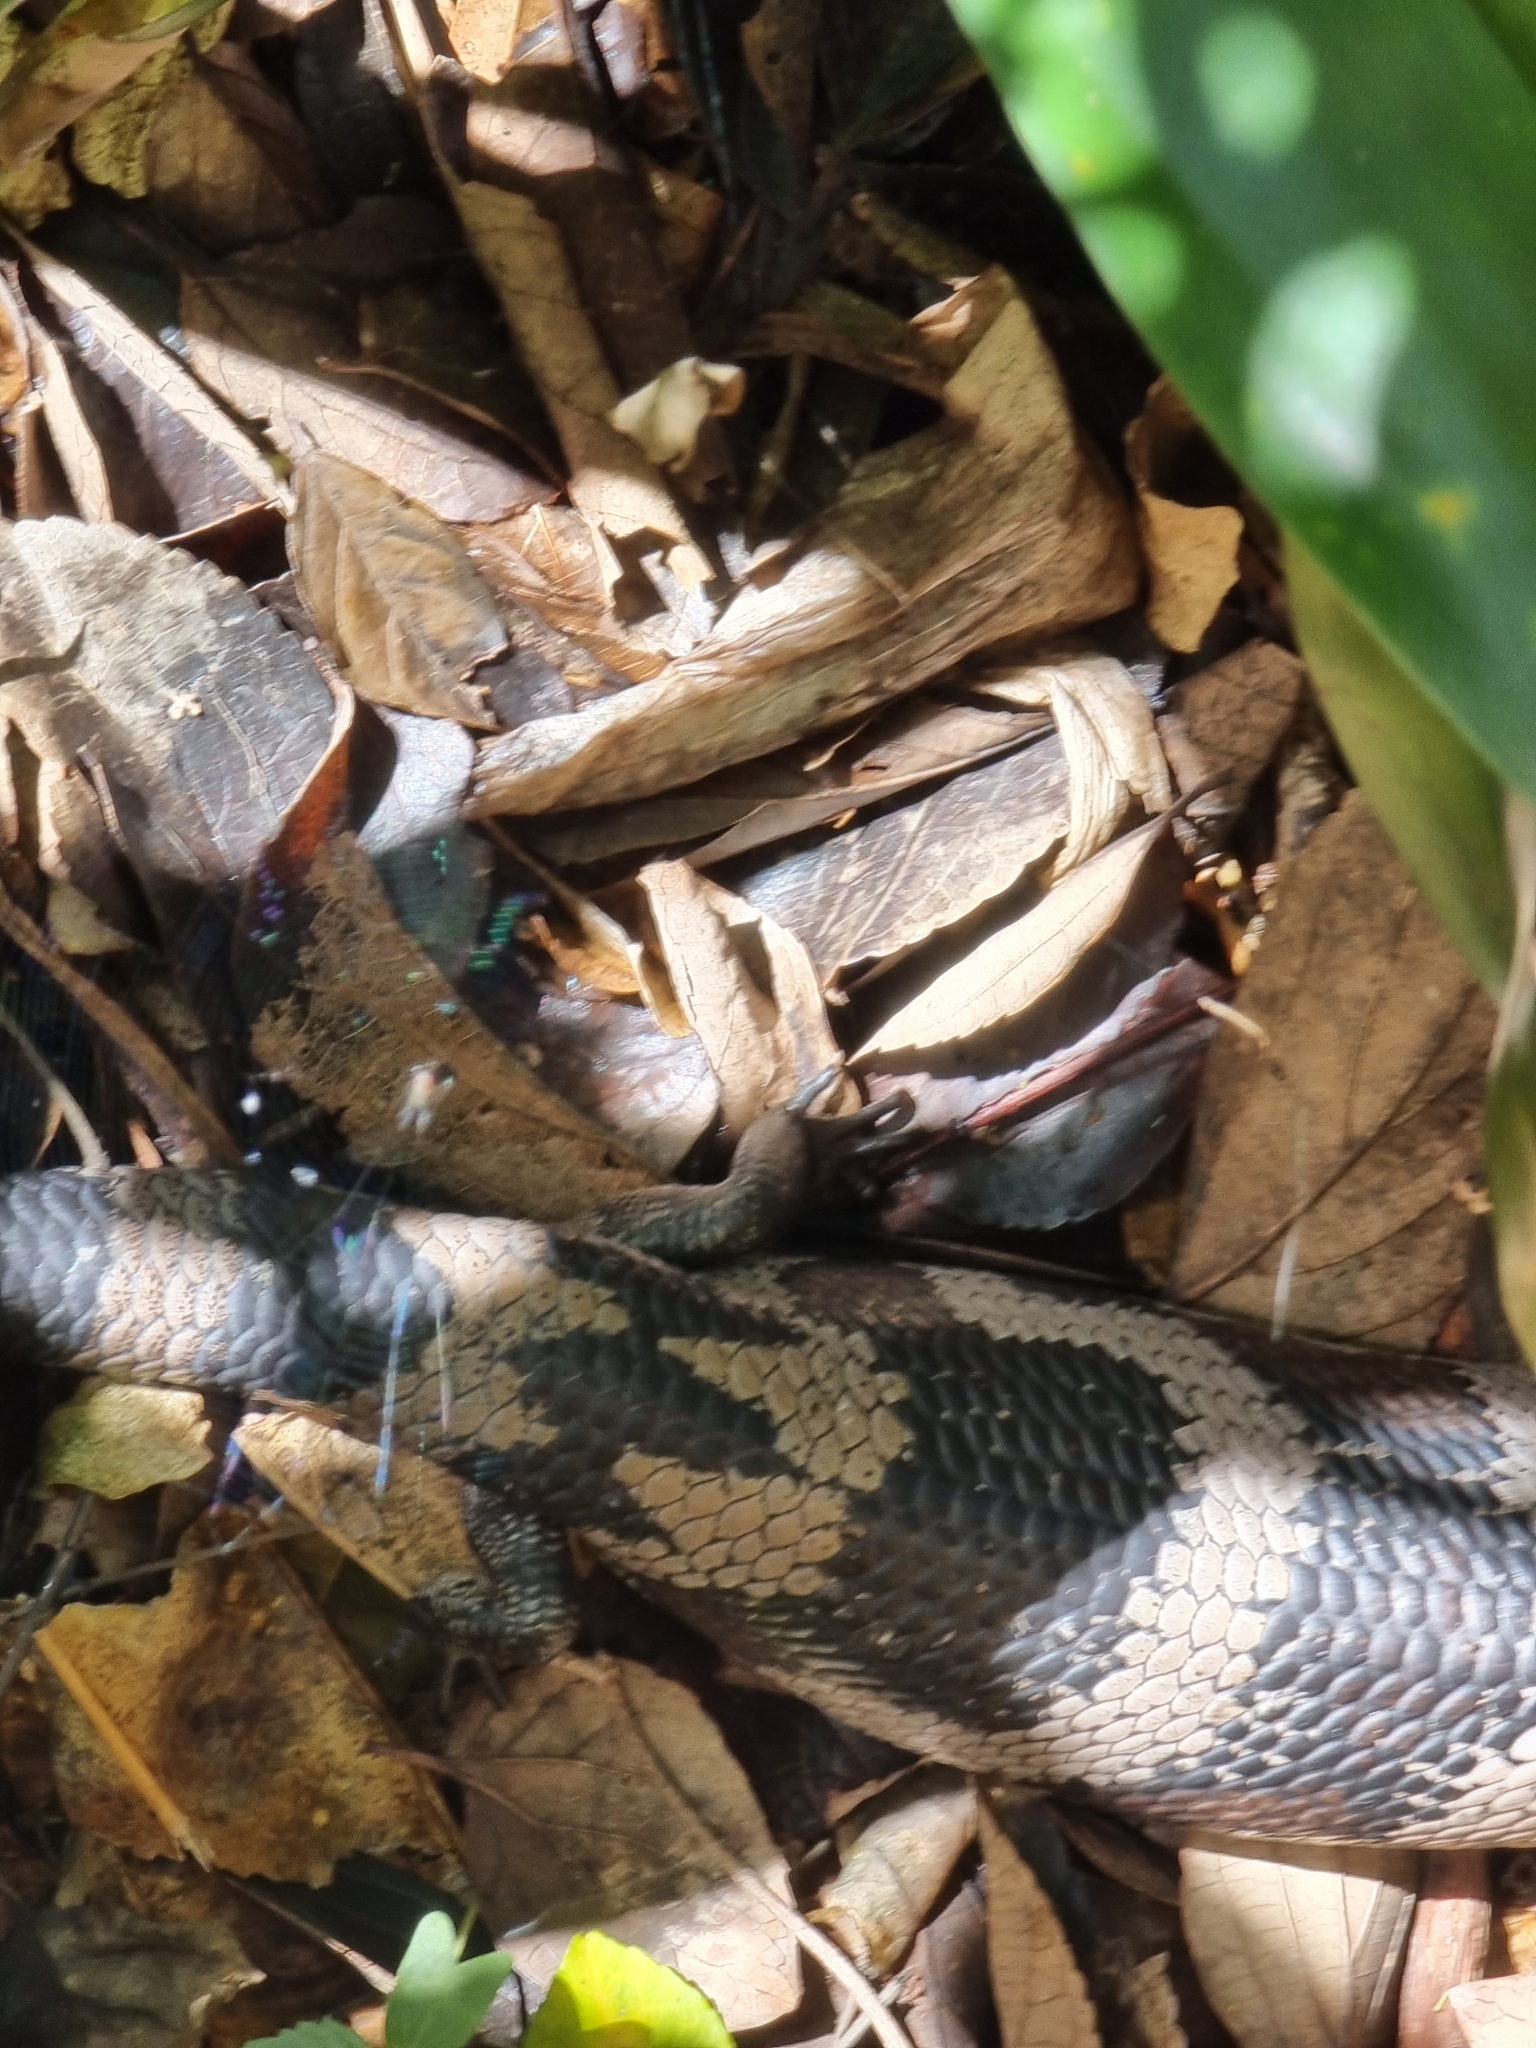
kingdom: Animalia
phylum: Chordata
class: Squamata
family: Scincidae
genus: Tiliqua
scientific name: Tiliqua scincoides
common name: Common bluetongue
